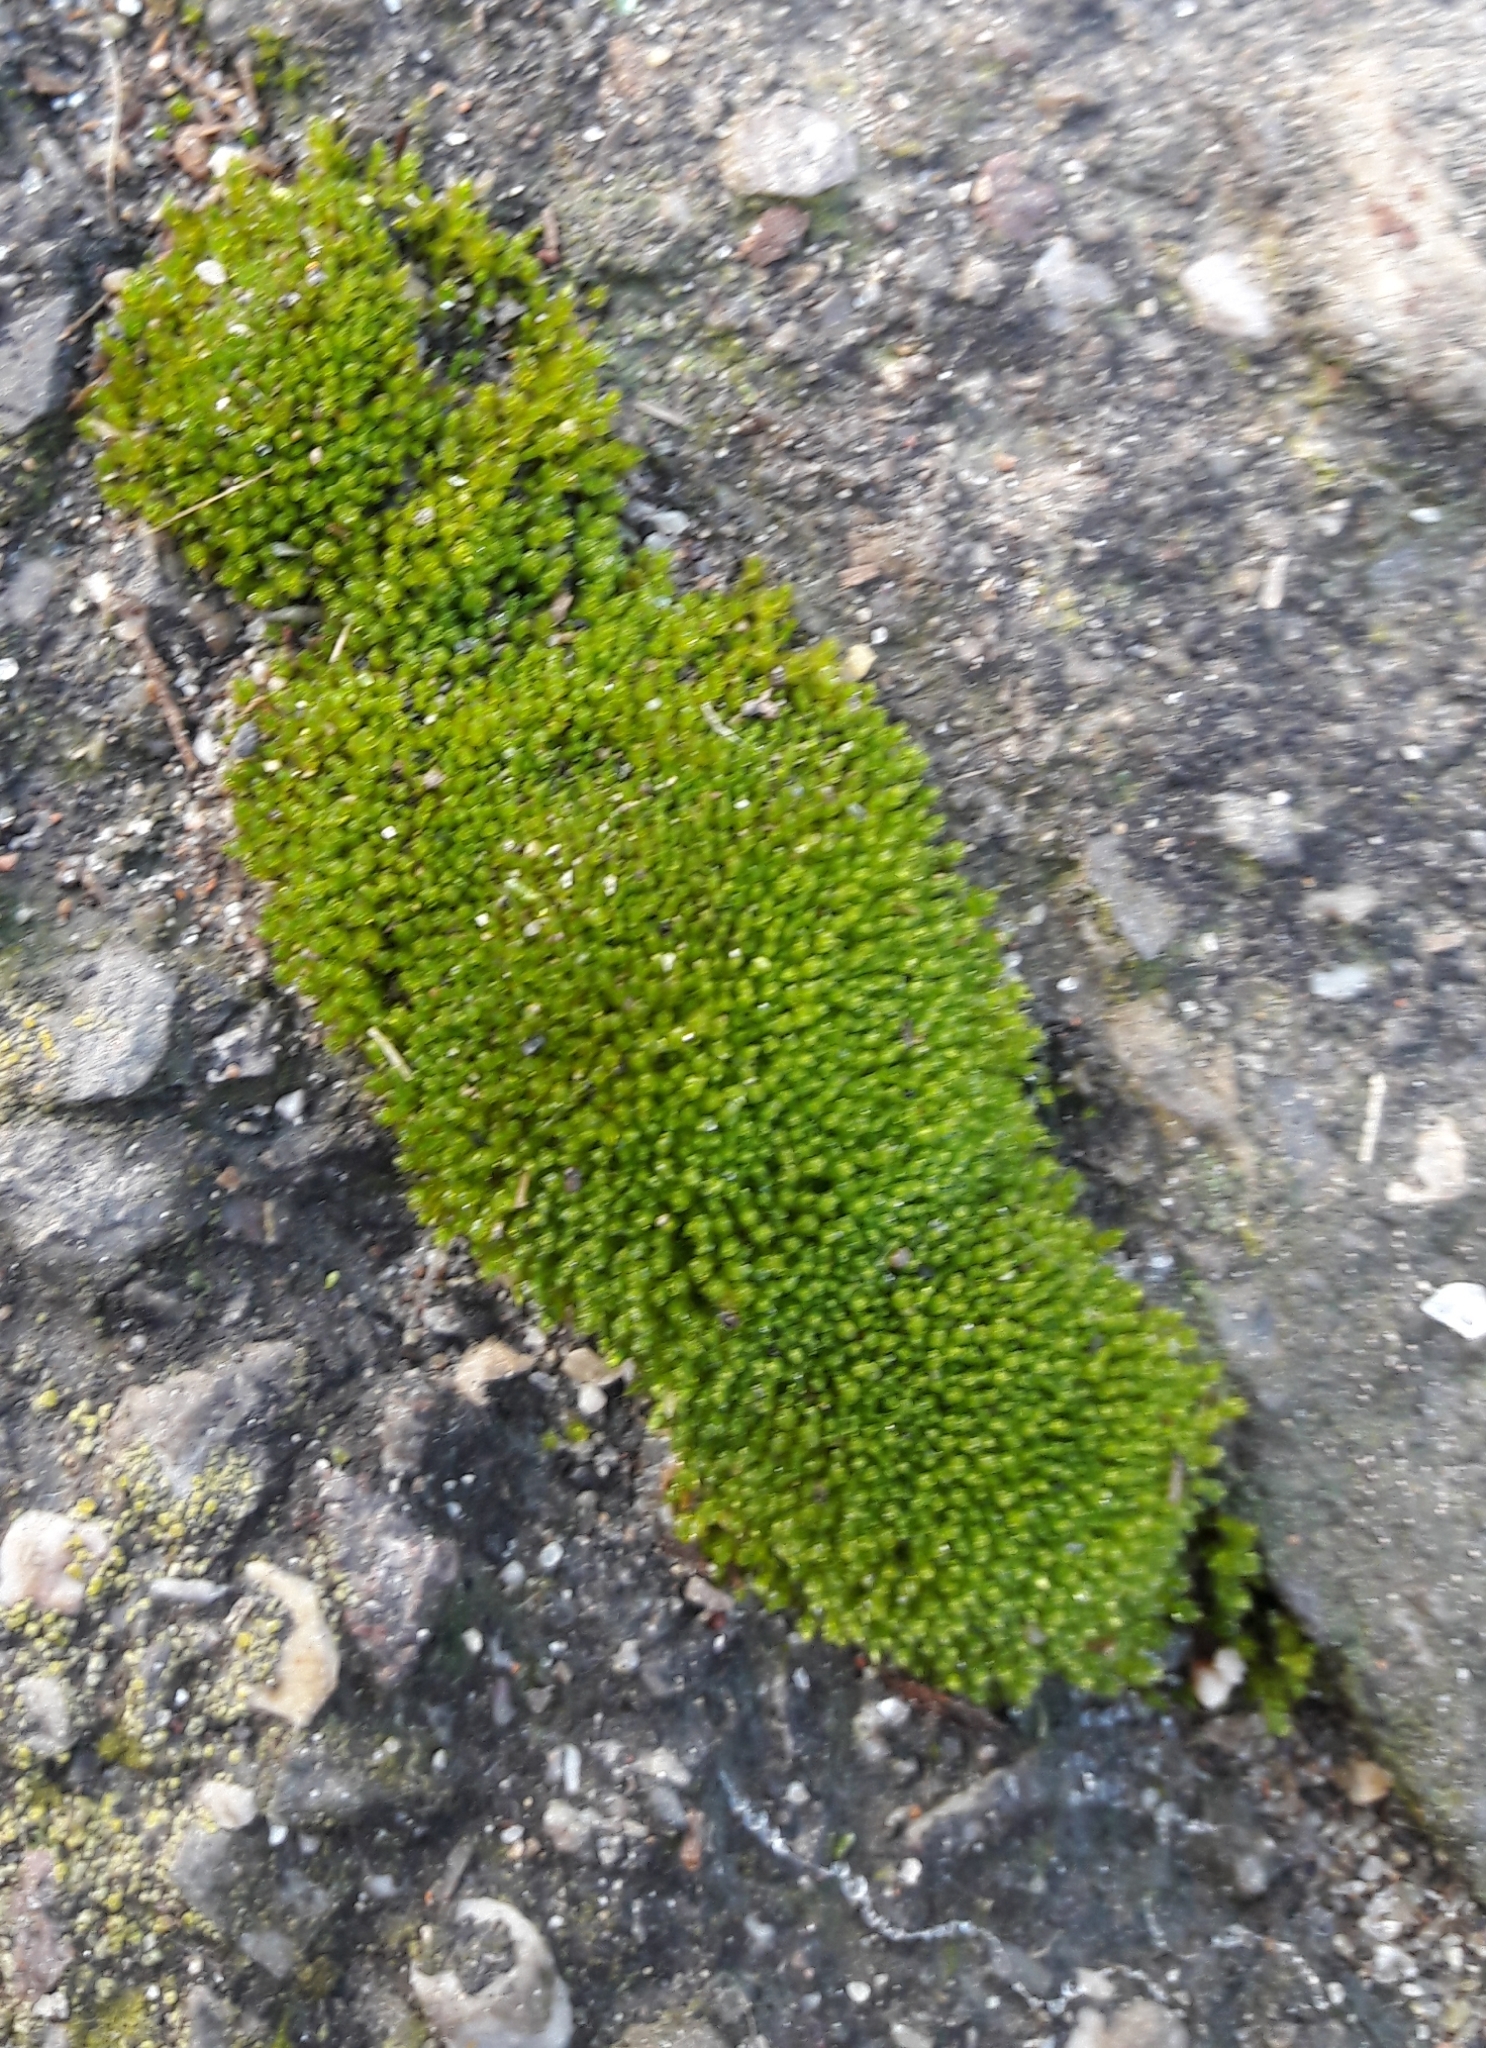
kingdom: Plantae
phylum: Bryophyta
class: Bryopsida
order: Bryales
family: Bryaceae
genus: Bryum
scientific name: Bryum argenteum
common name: Silver-moss
